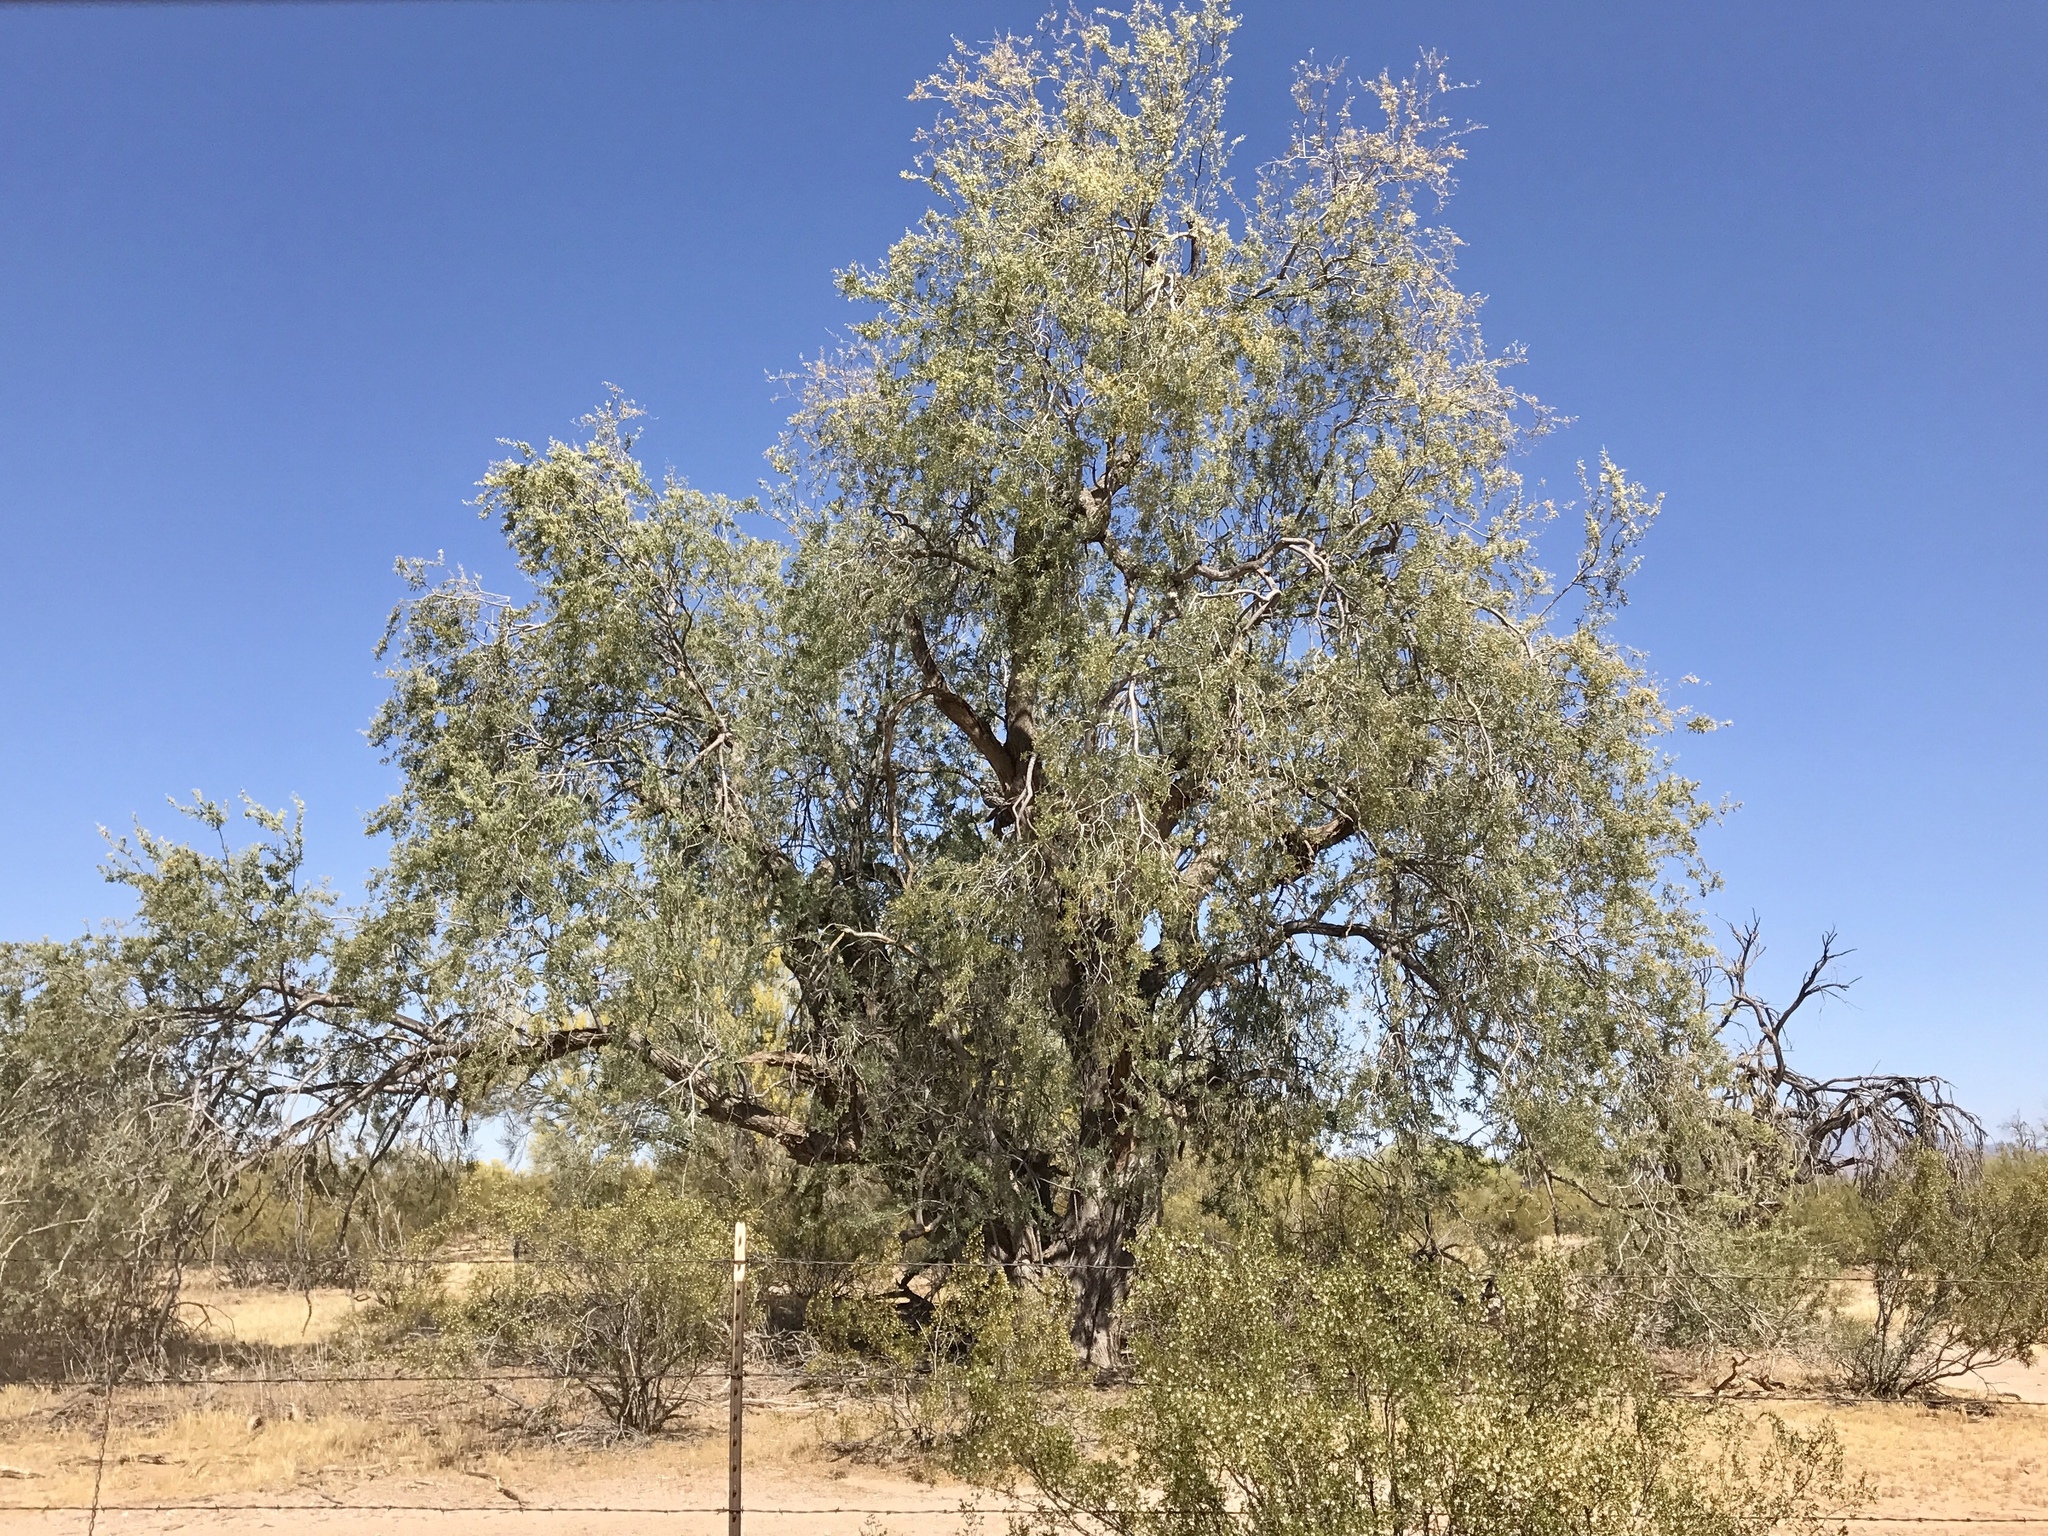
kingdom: Plantae
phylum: Tracheophyta
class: Magnoliopsida
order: Fabales
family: Fabaceae
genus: Olneya
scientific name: Olneya tesota
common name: Desert ironwood
